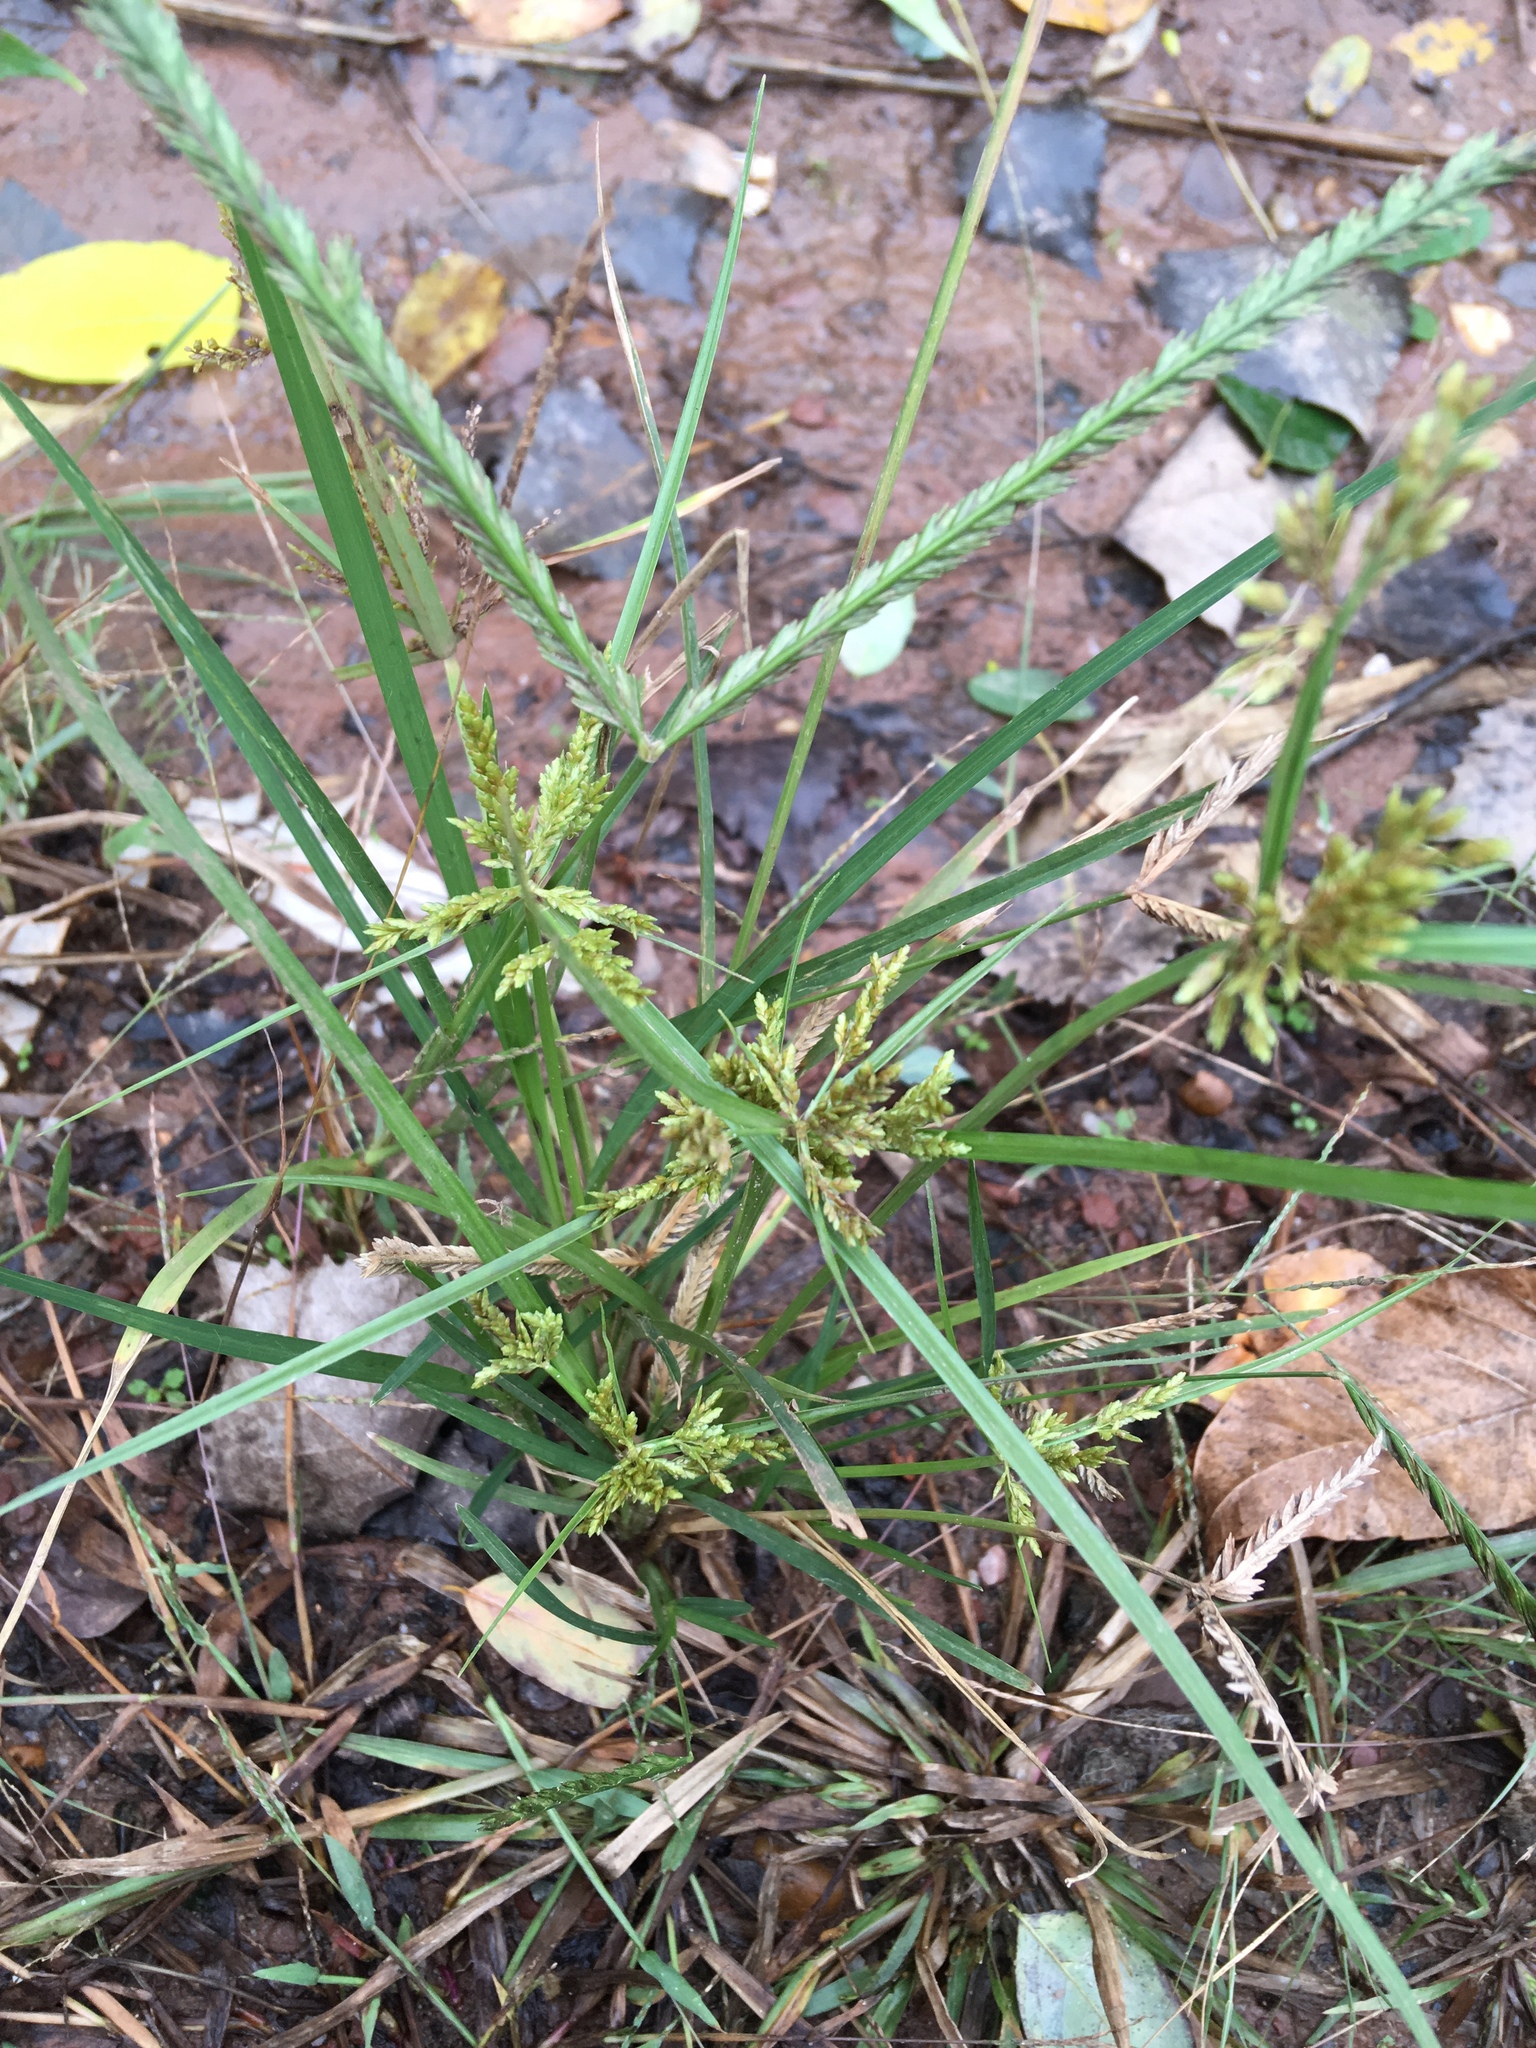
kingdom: Plantae
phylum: Tracheophyta
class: Liliopsida
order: Poales
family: Cyperaceae
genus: Cyperus
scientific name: Cyperus iria
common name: Ricefield flatsedge
